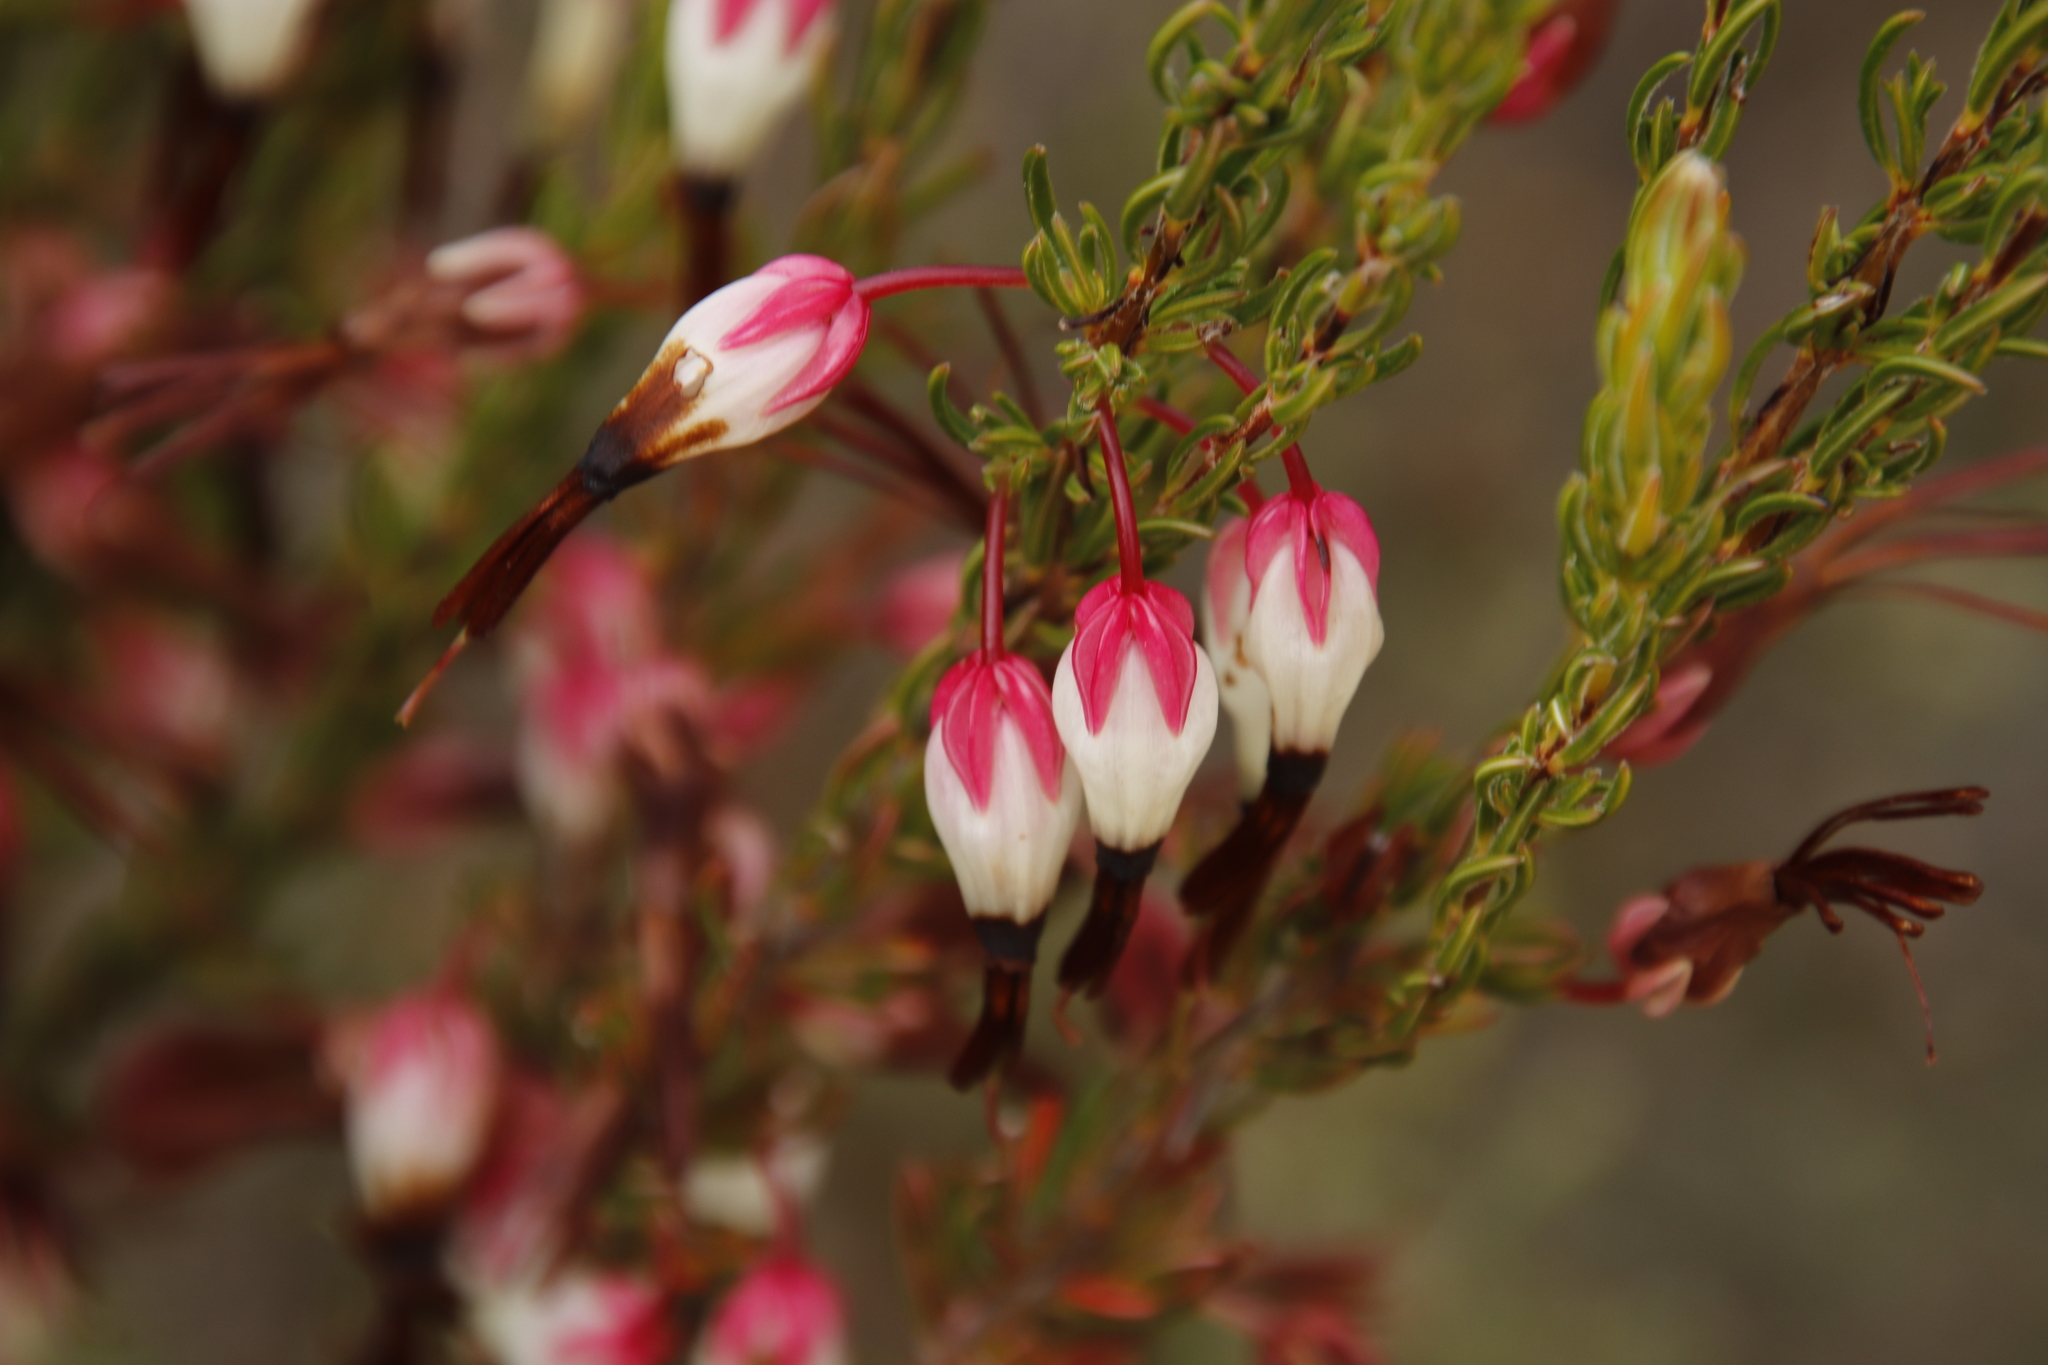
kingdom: Plantae
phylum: Tracheophyta
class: Magnoliopsida
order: Ericales
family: Ericaceae
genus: Erica
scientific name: Erica plukenetii
